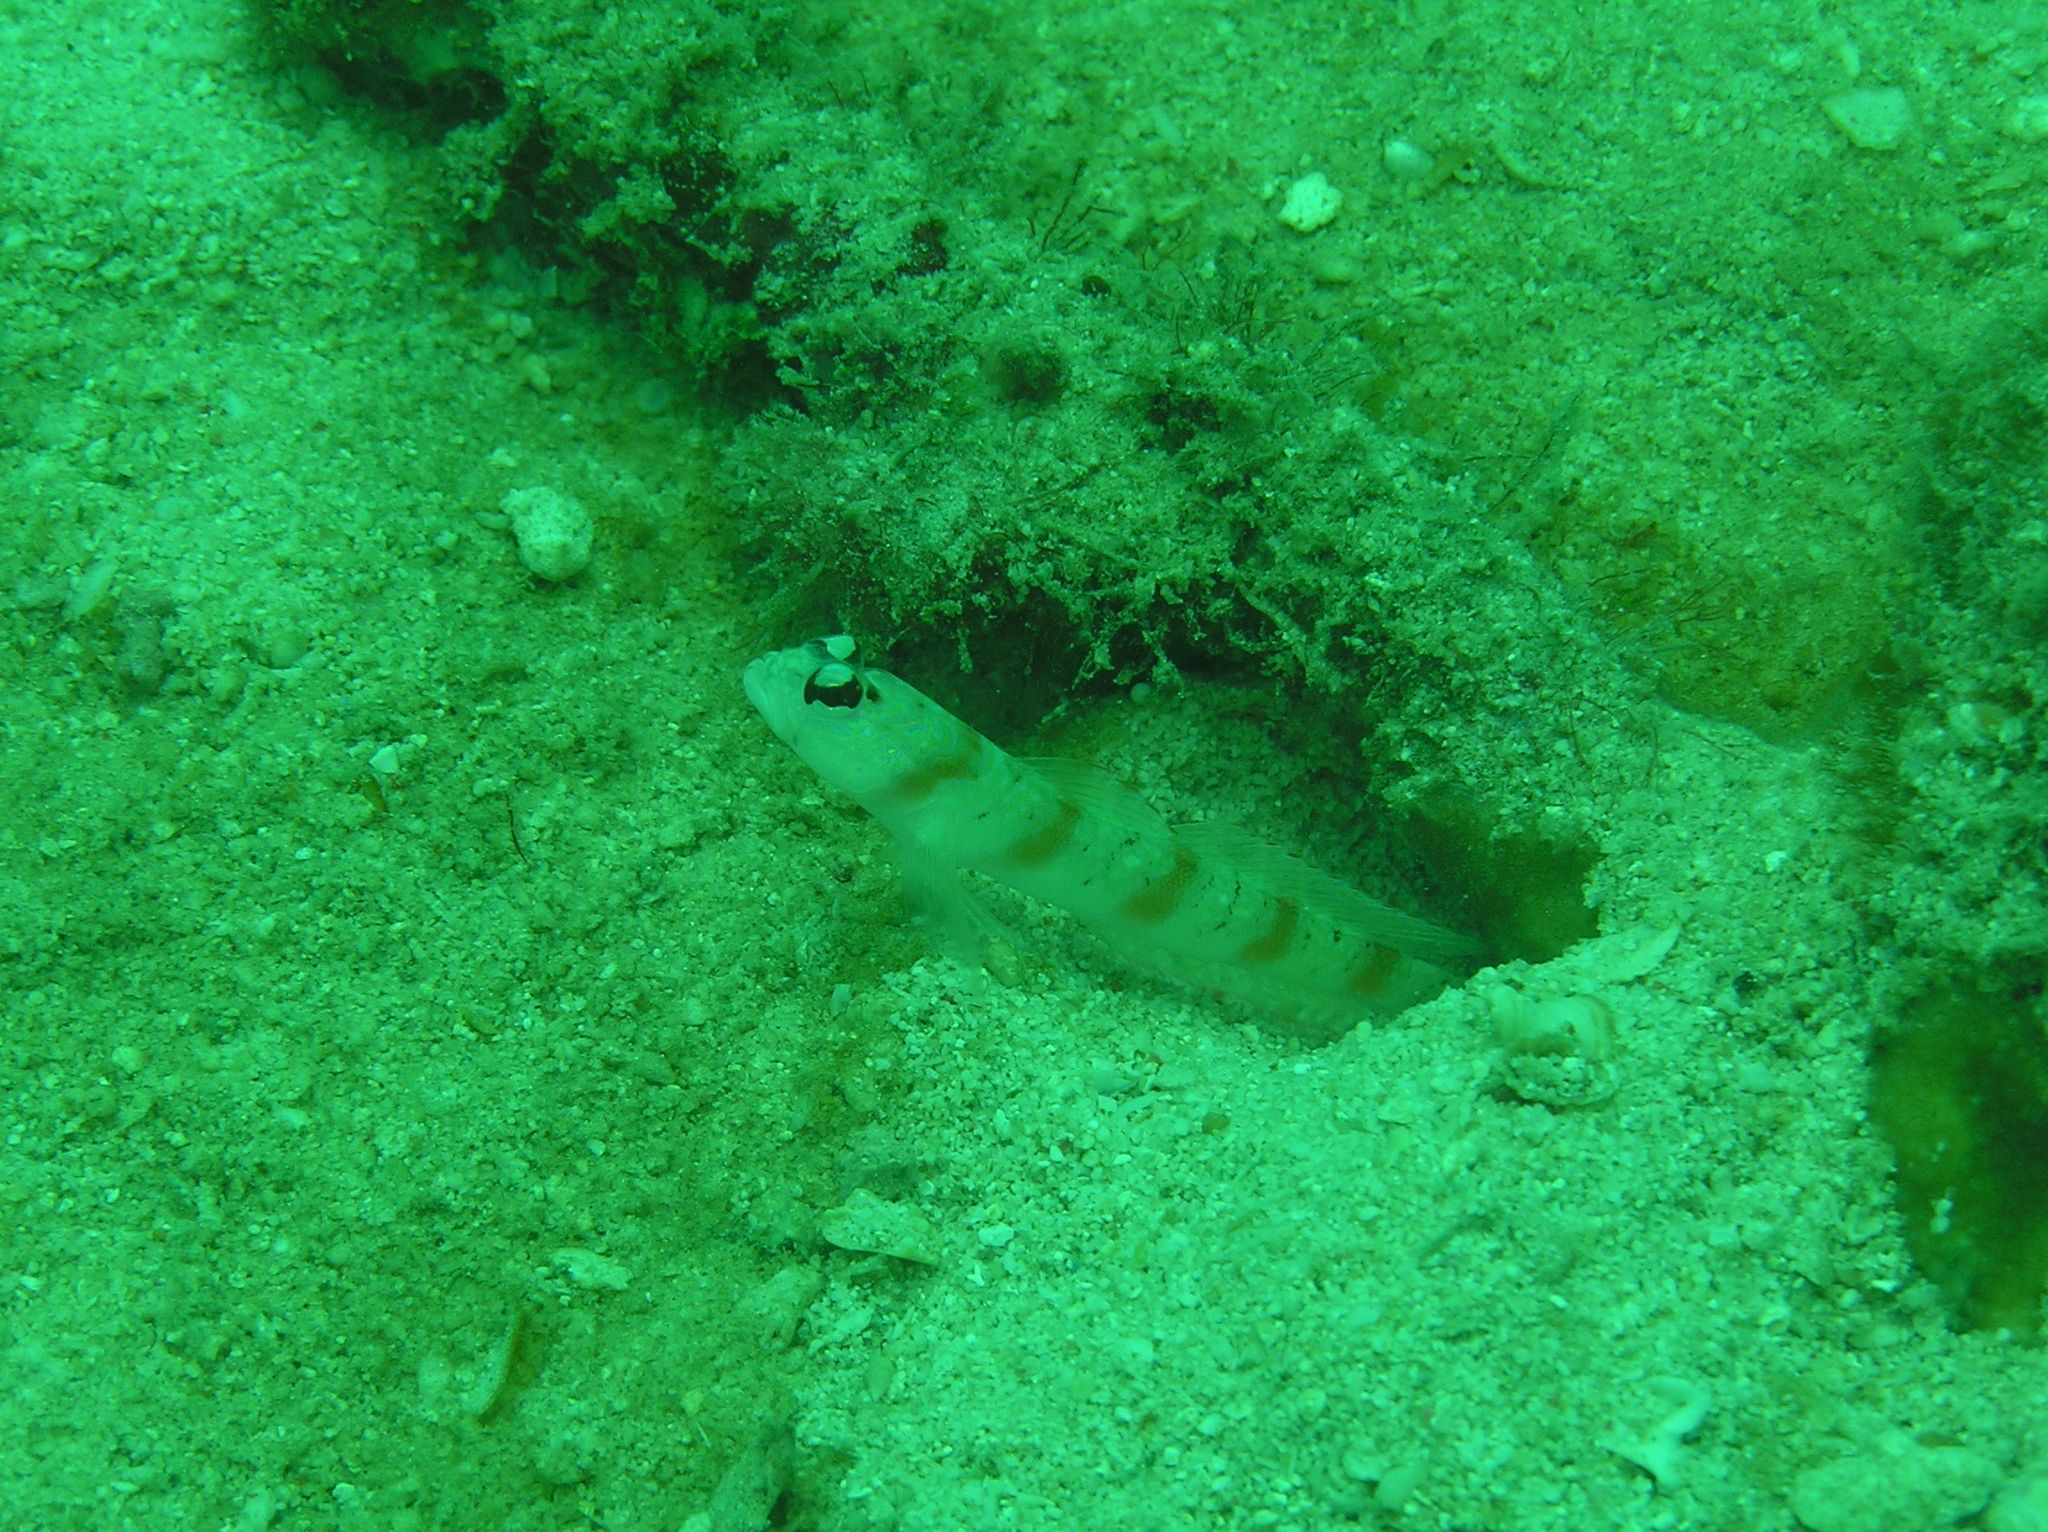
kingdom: Animalia
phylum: Chordata
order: Perciformes
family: Gobiidae
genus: Amblyeleotris
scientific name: Amblyeleotris rubrimarginata
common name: Redmargin shrimpgoby
